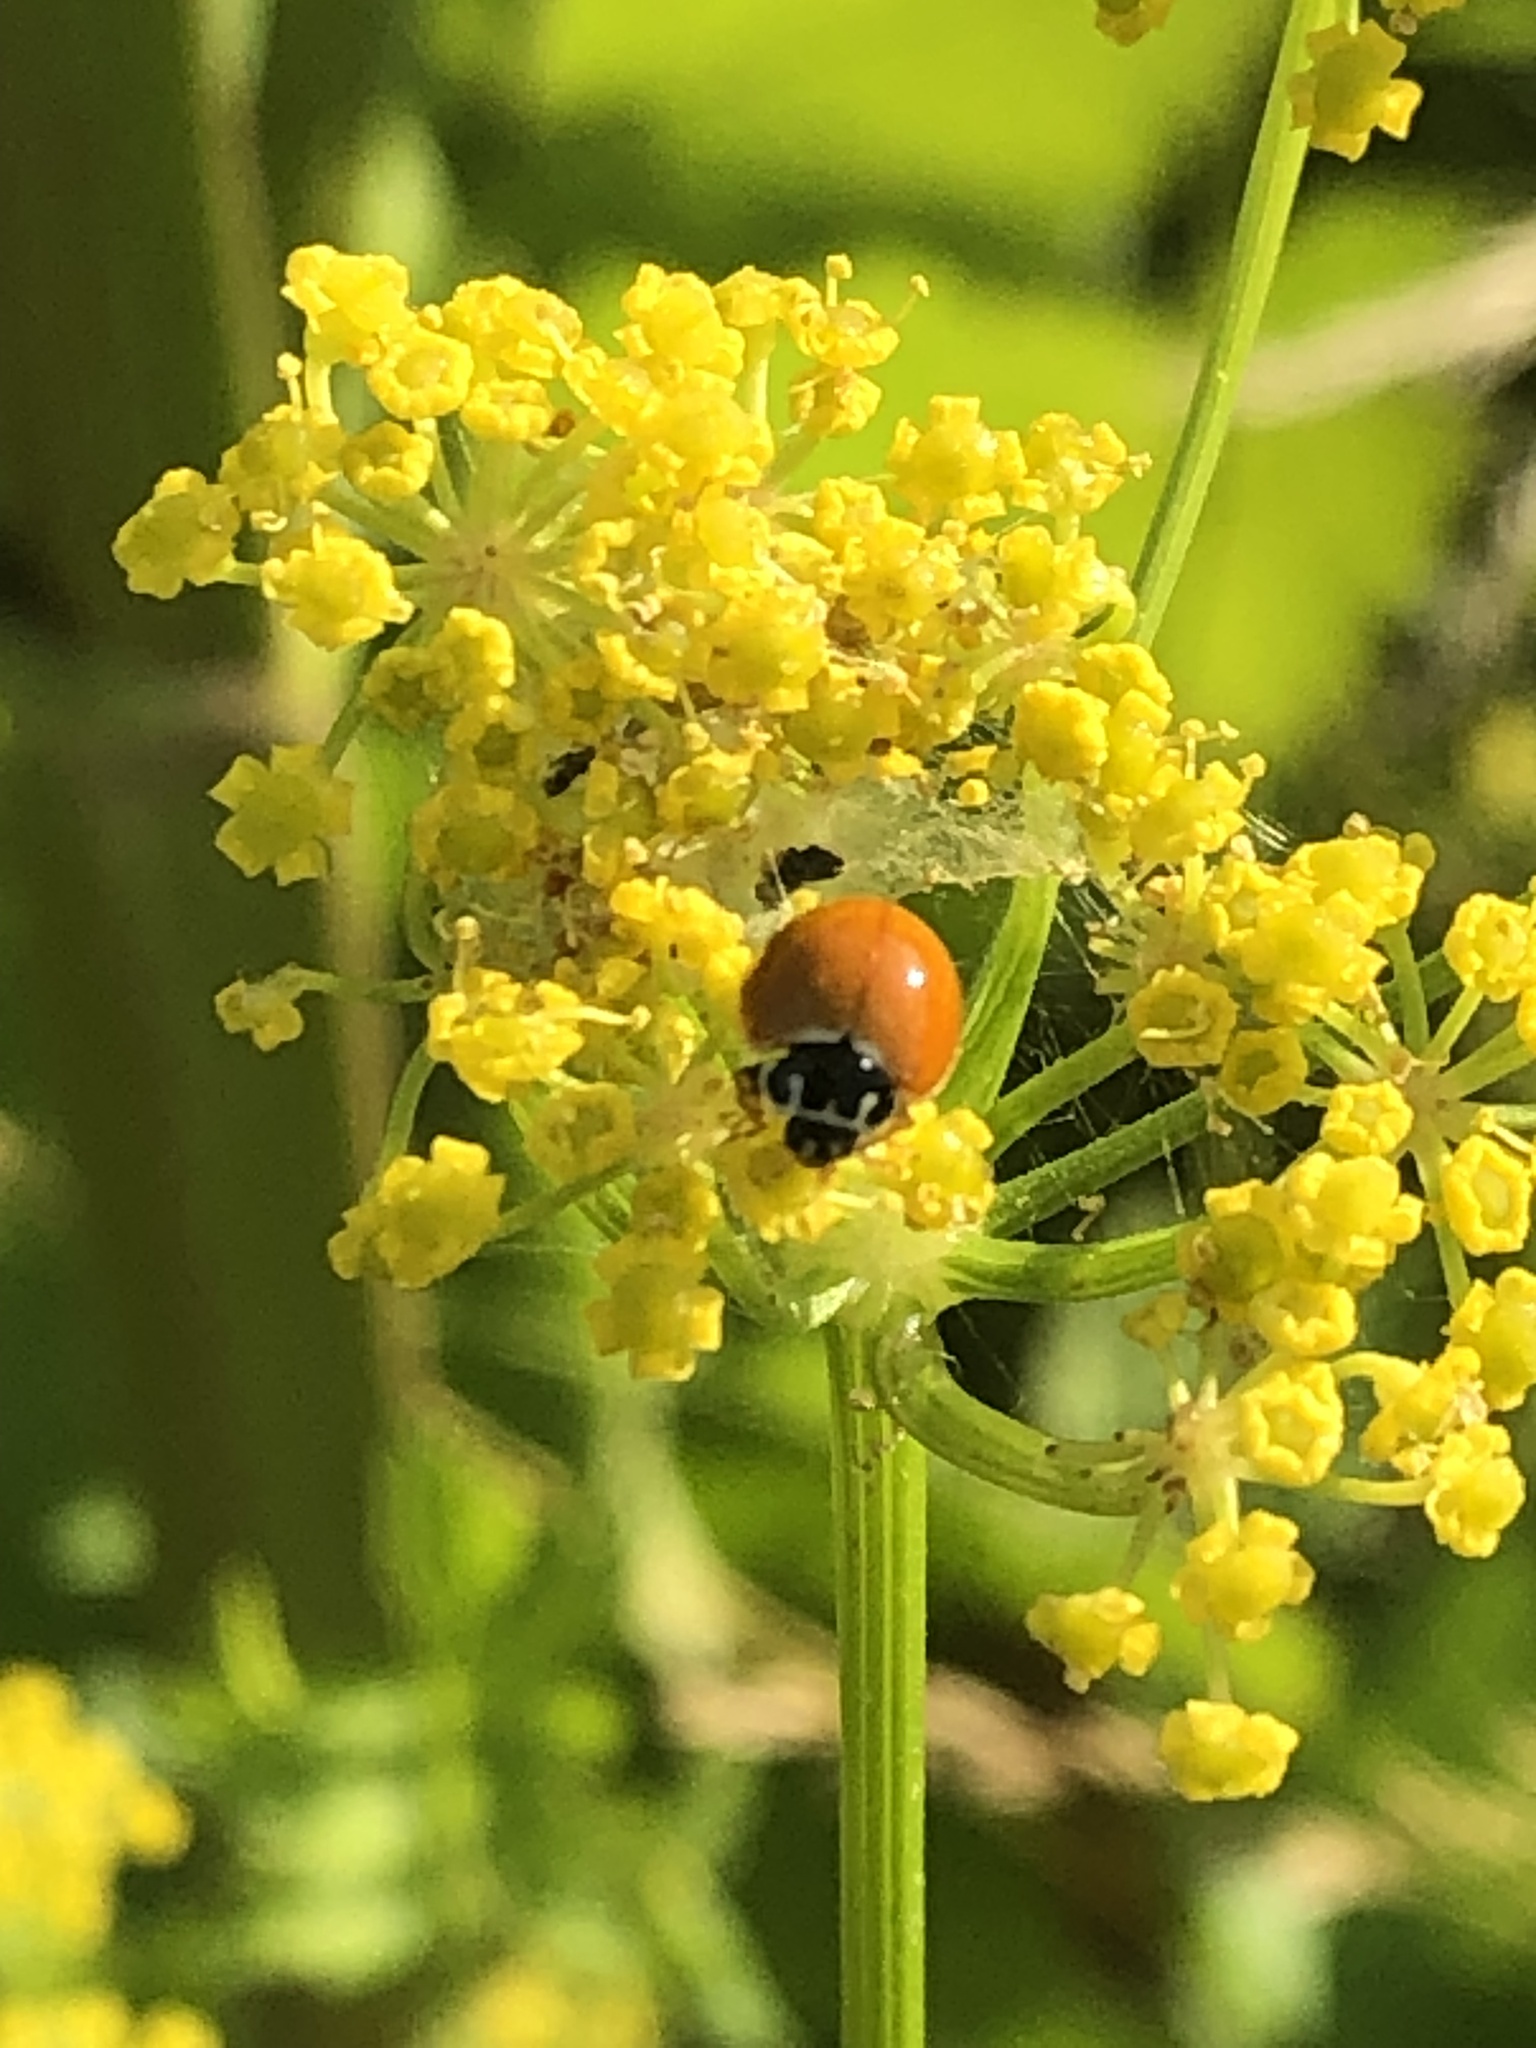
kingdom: Animalia
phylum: Arthropoda
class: Insecta
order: Coleoptera
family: Coccinellidae
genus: Cycloneda
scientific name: Cycloneda munda
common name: Polished lady beetle
